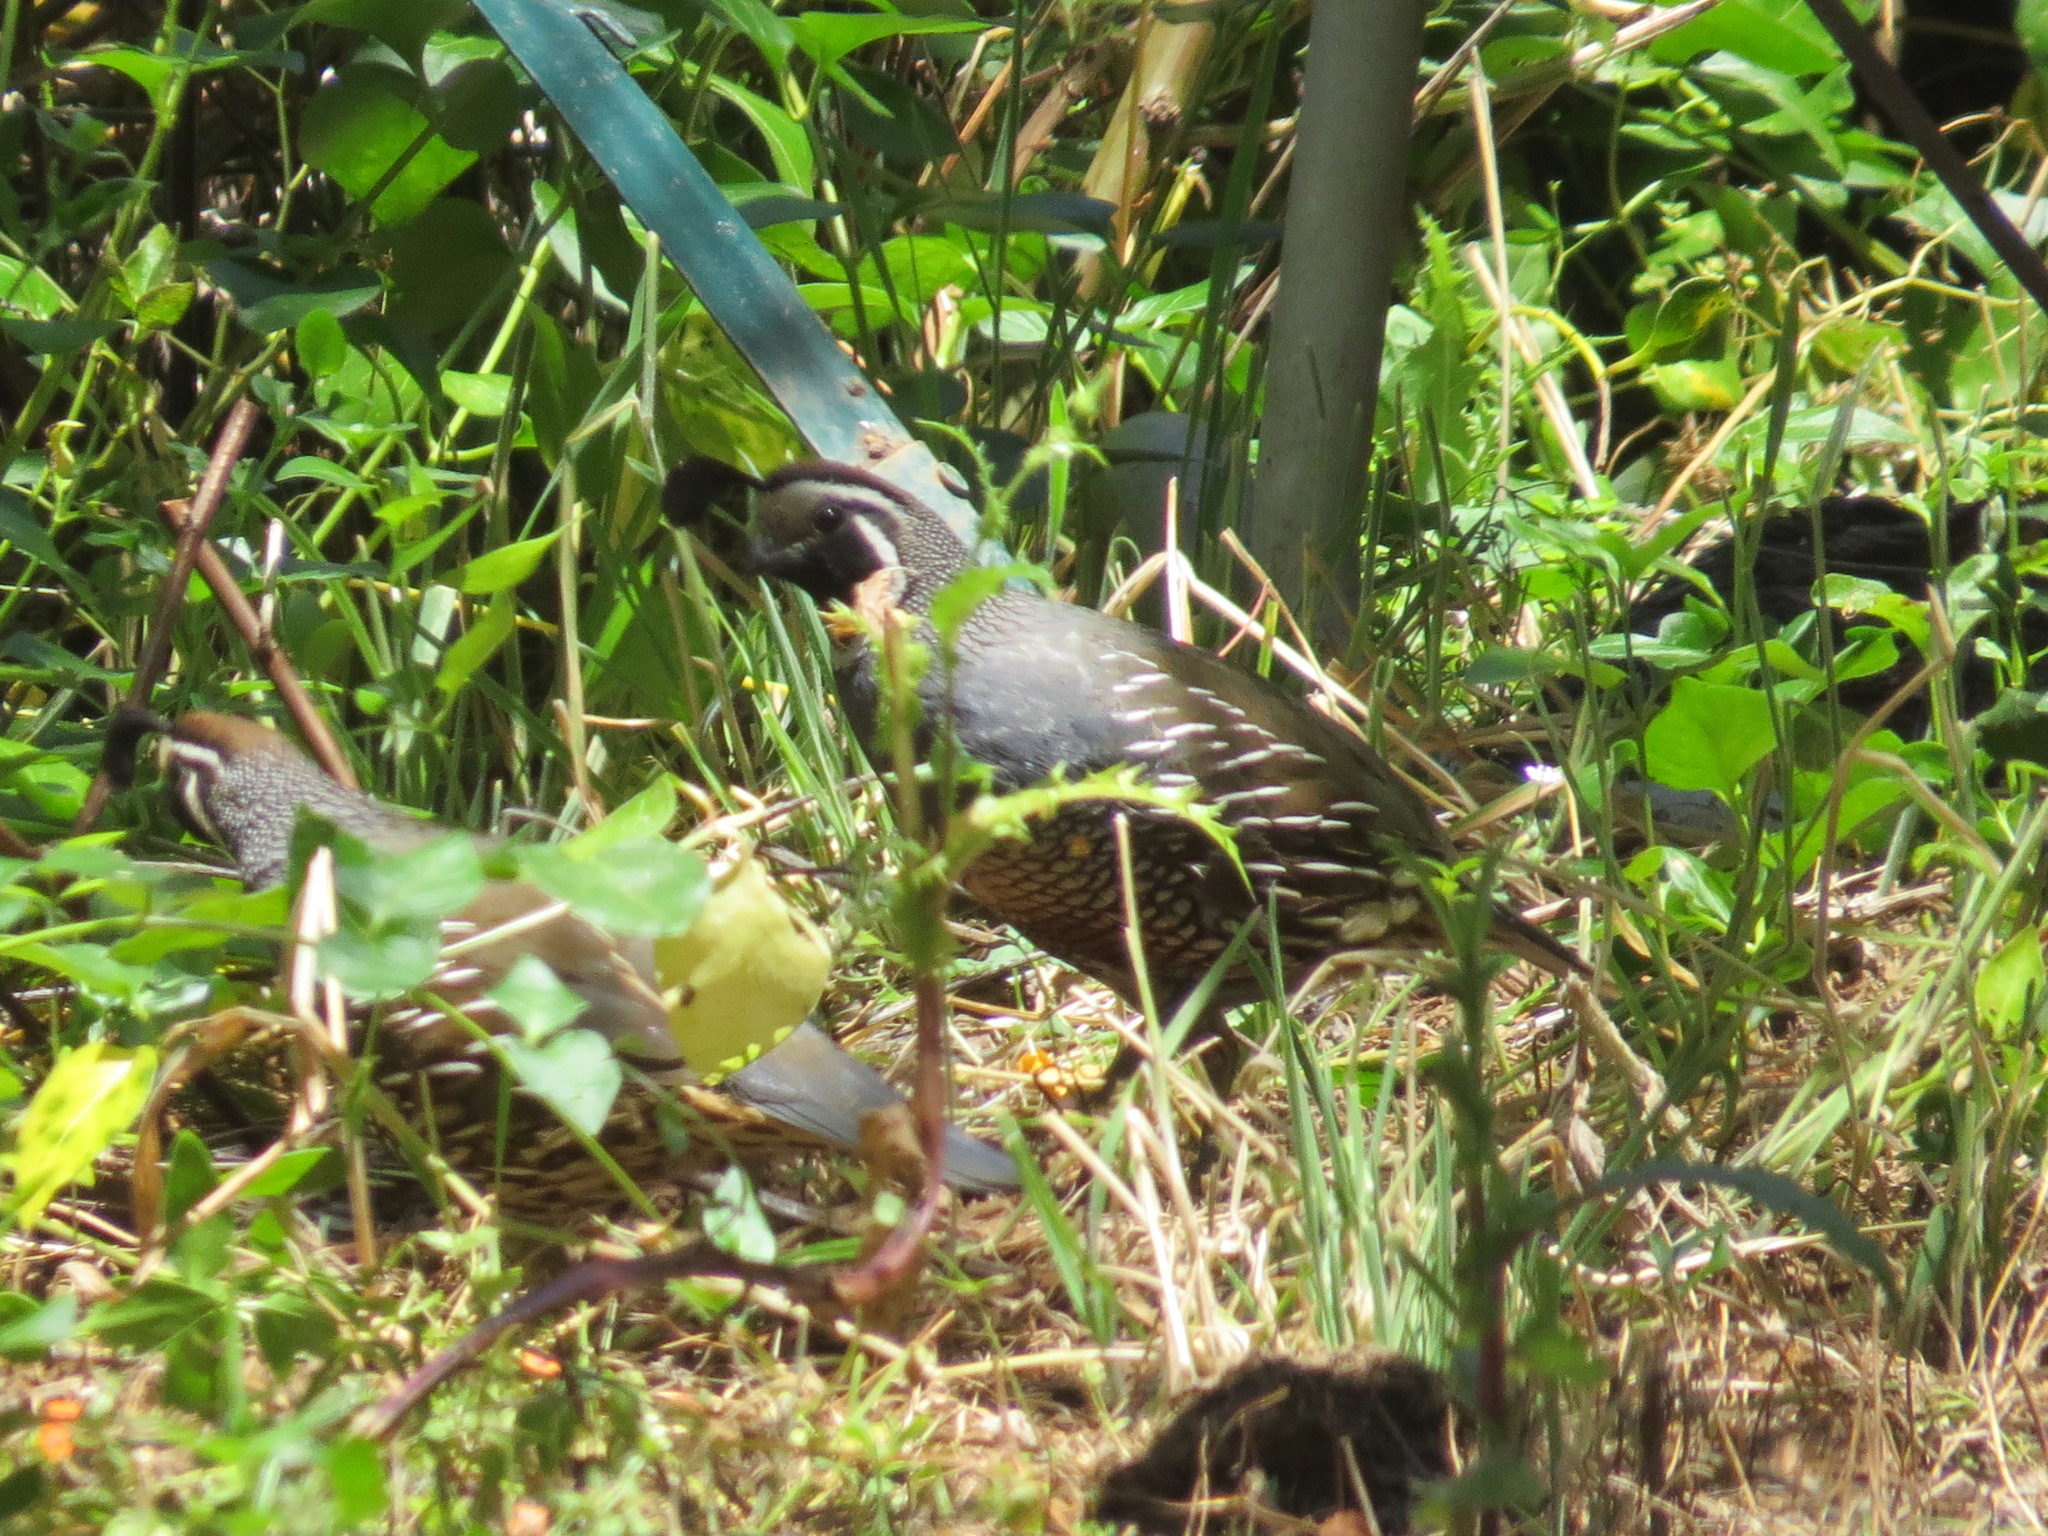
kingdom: Animalia
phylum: Chordata
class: Aves
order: Galliformes
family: Odontophoridae
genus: Callipepla
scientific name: Callipepla californica
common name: California quail
